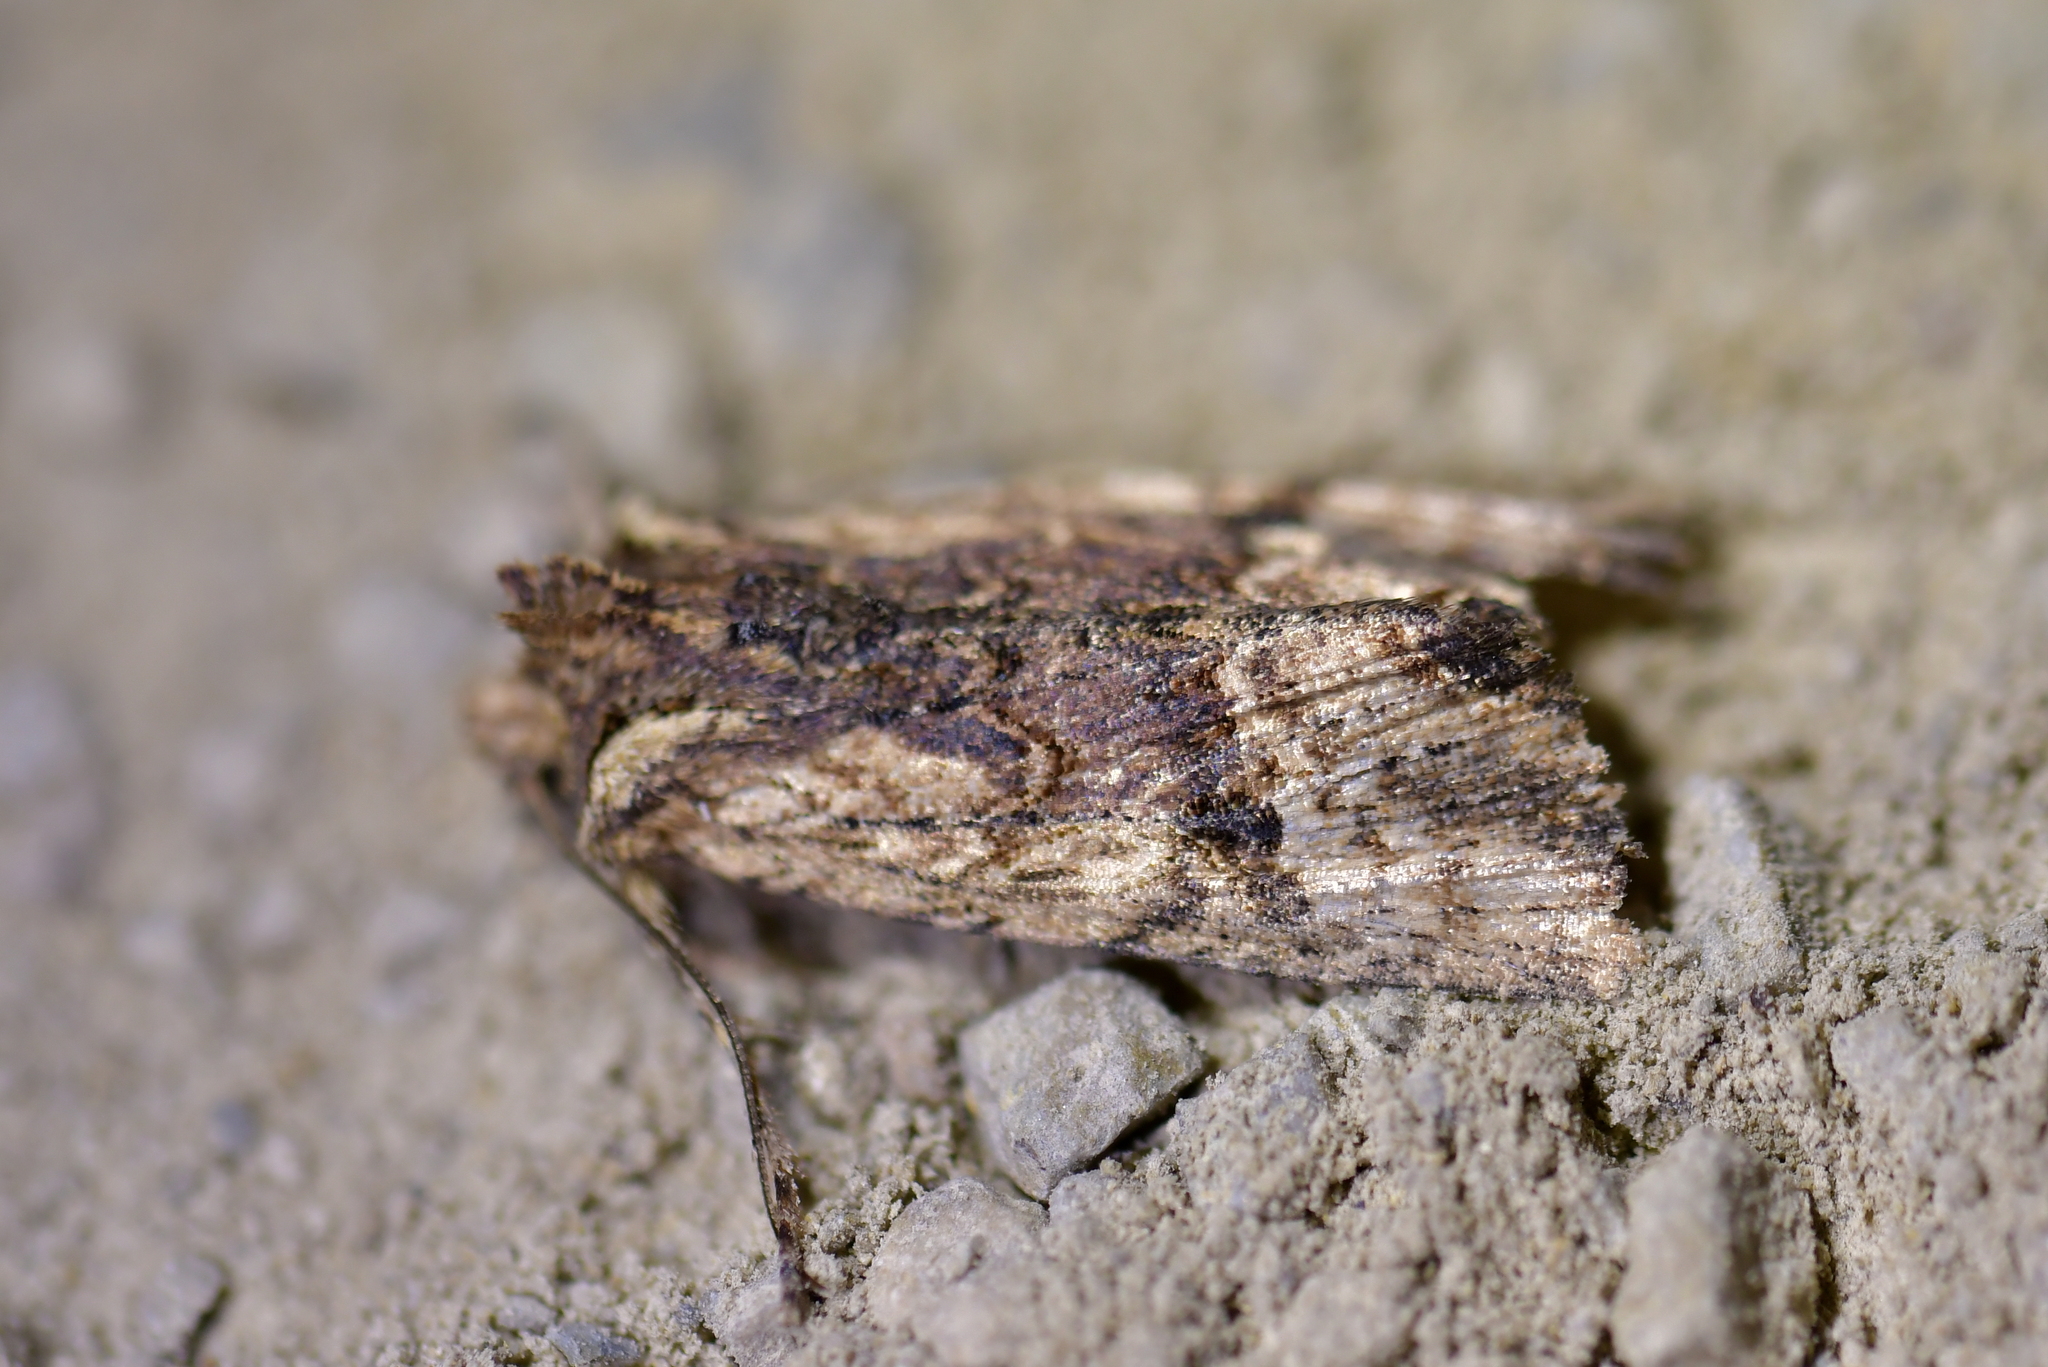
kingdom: Animalia
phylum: Arthropoda
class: Insecta
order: Lepidoptera
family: Noctuidae
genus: Meterana
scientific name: Meterana coeleno
